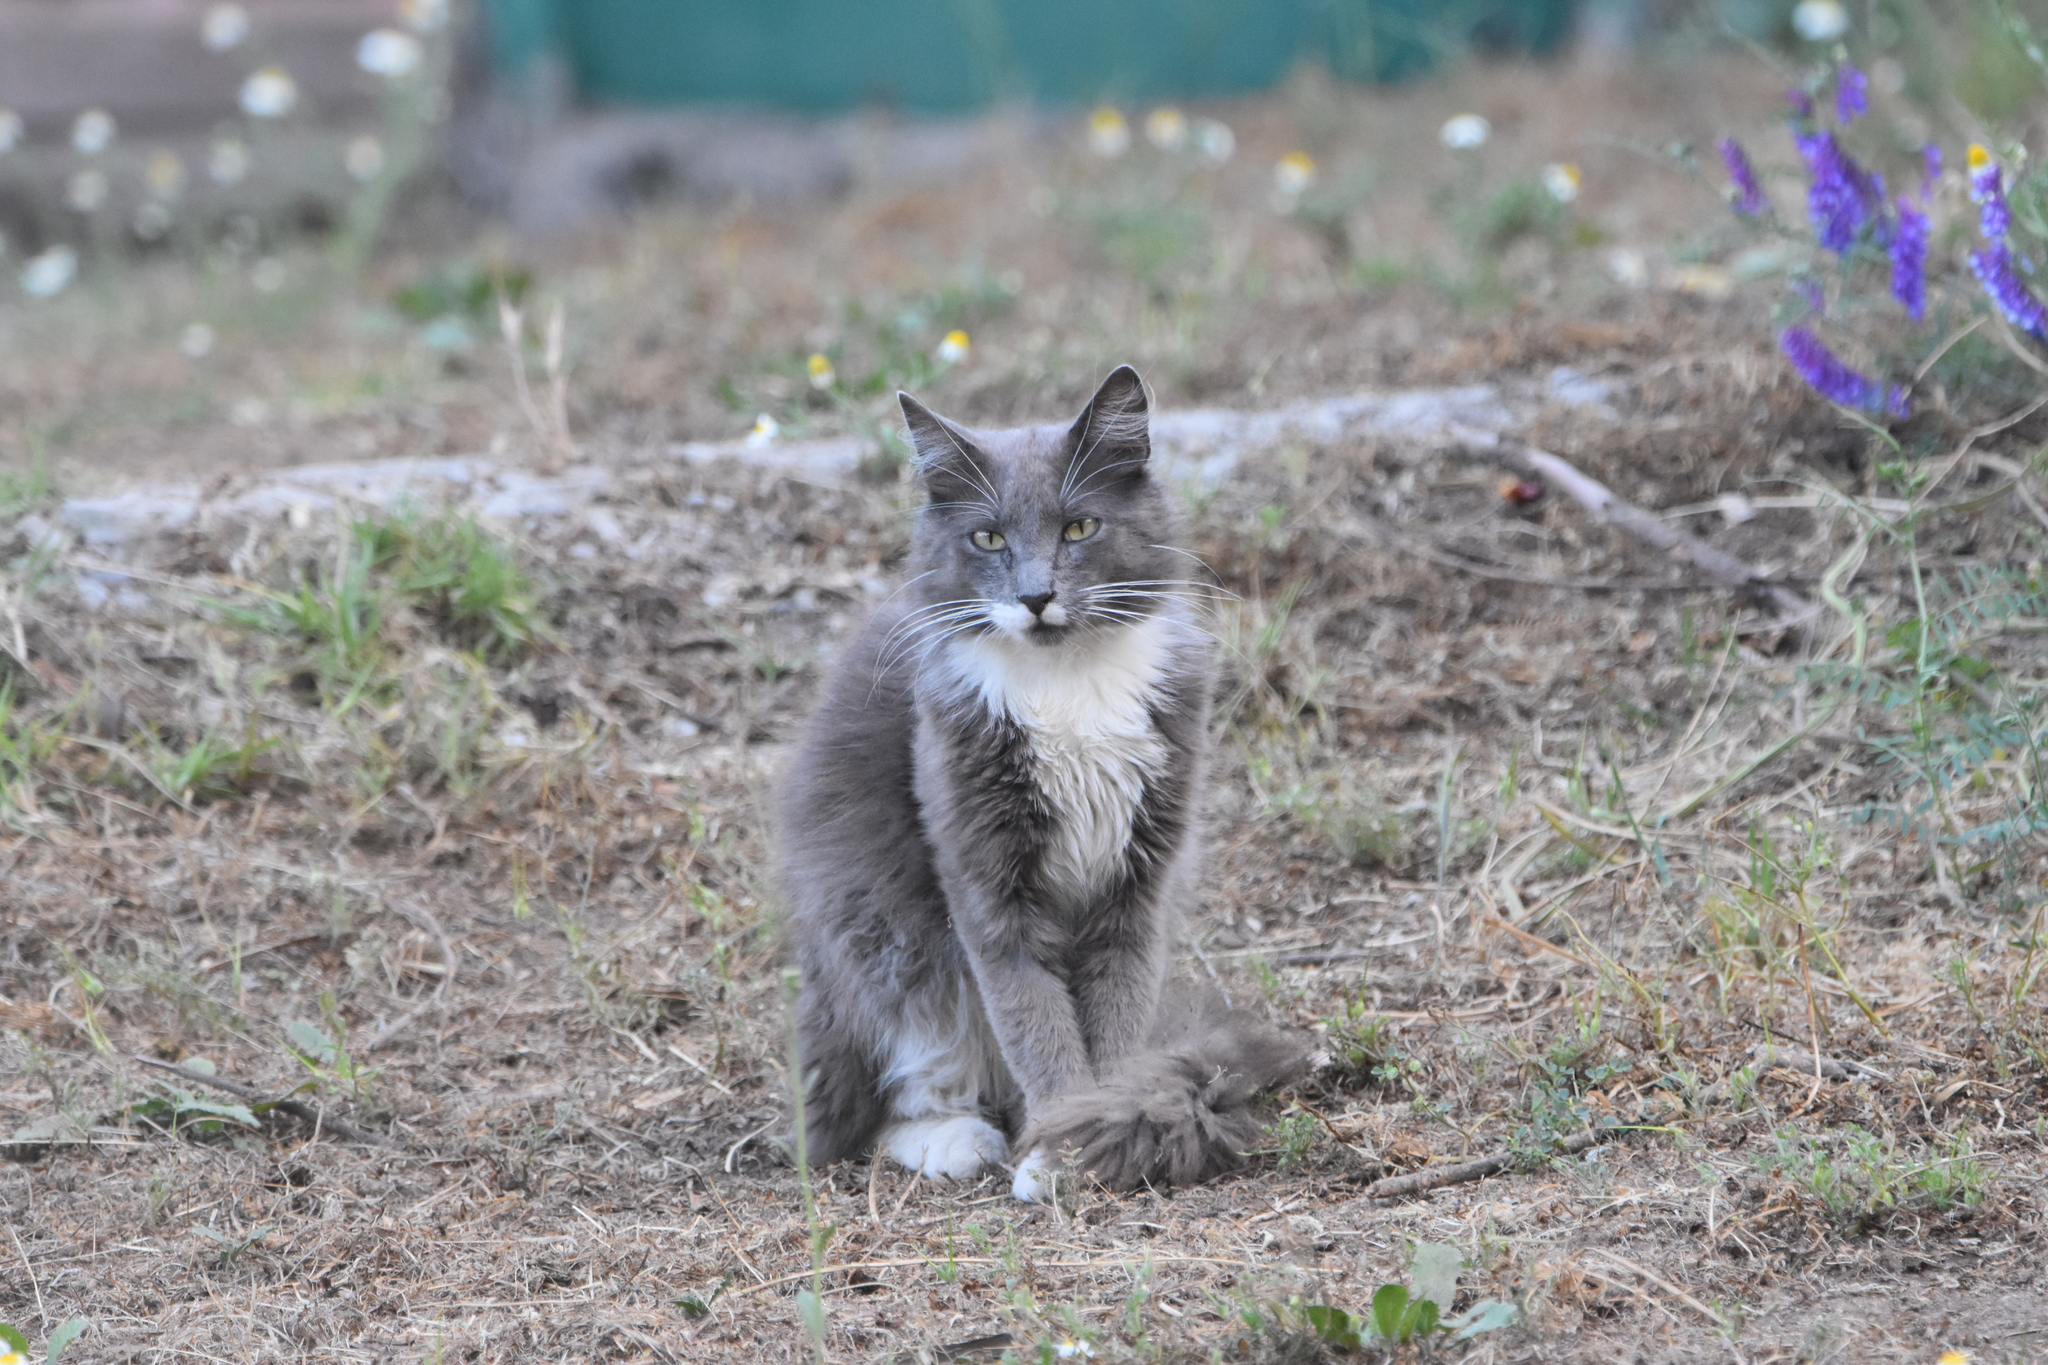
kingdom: Animalia
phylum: Chordata
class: Mammalia
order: Carnivora
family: Felidae
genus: Felis
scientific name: Felis catus
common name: Domestic cat
